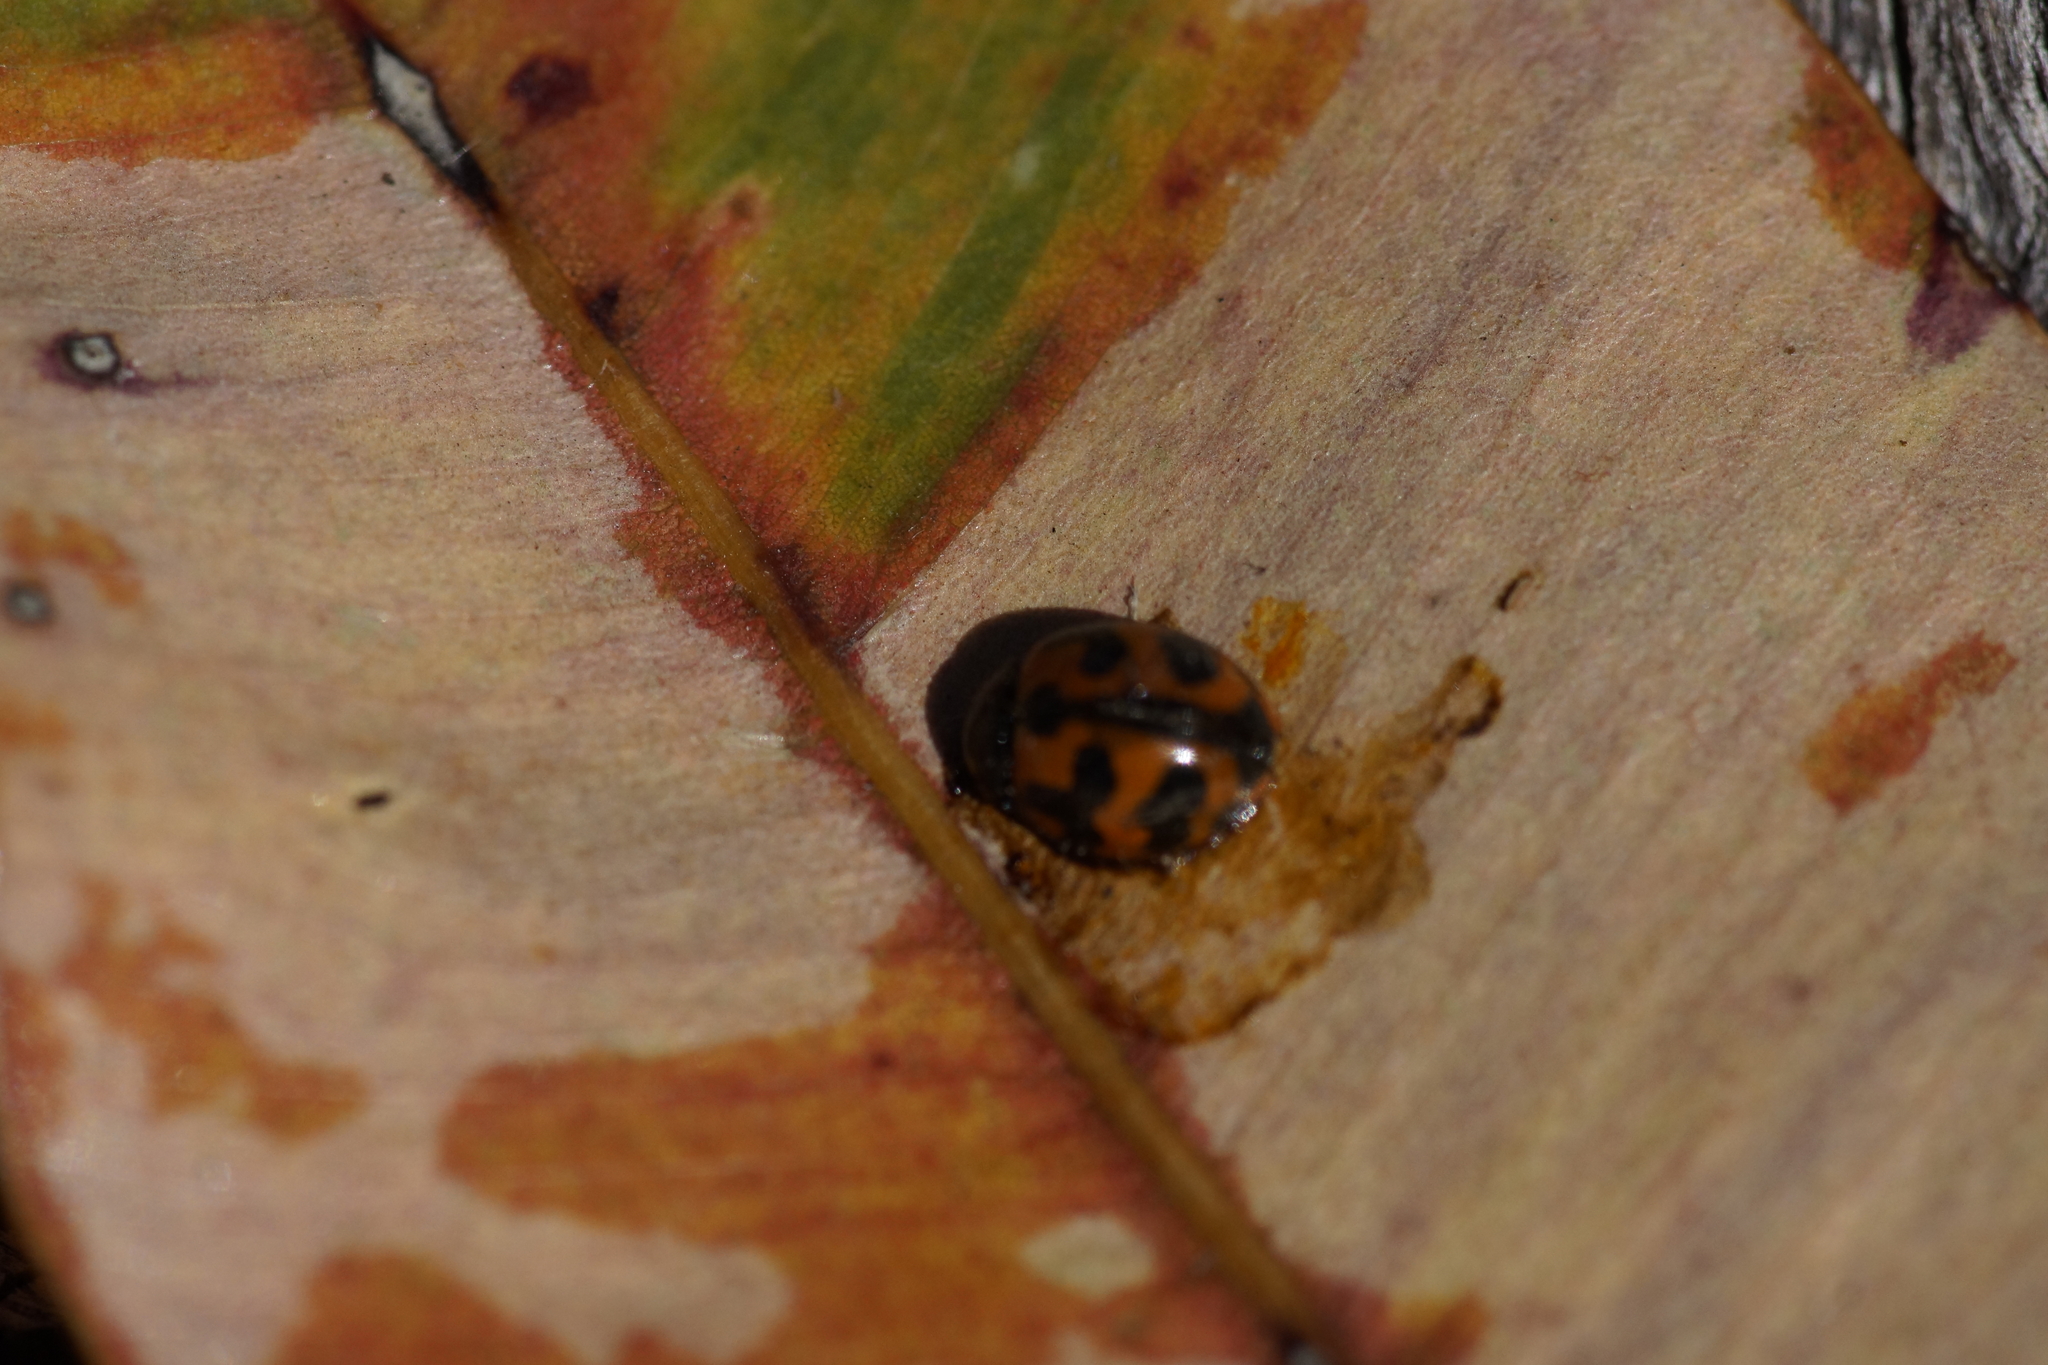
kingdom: Animalia
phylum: Arthropoda
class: Insecta
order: Coleoptera
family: Coccinellidae
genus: Coccinella
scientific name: Coccinella transversalis
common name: Transverse lady beetle
